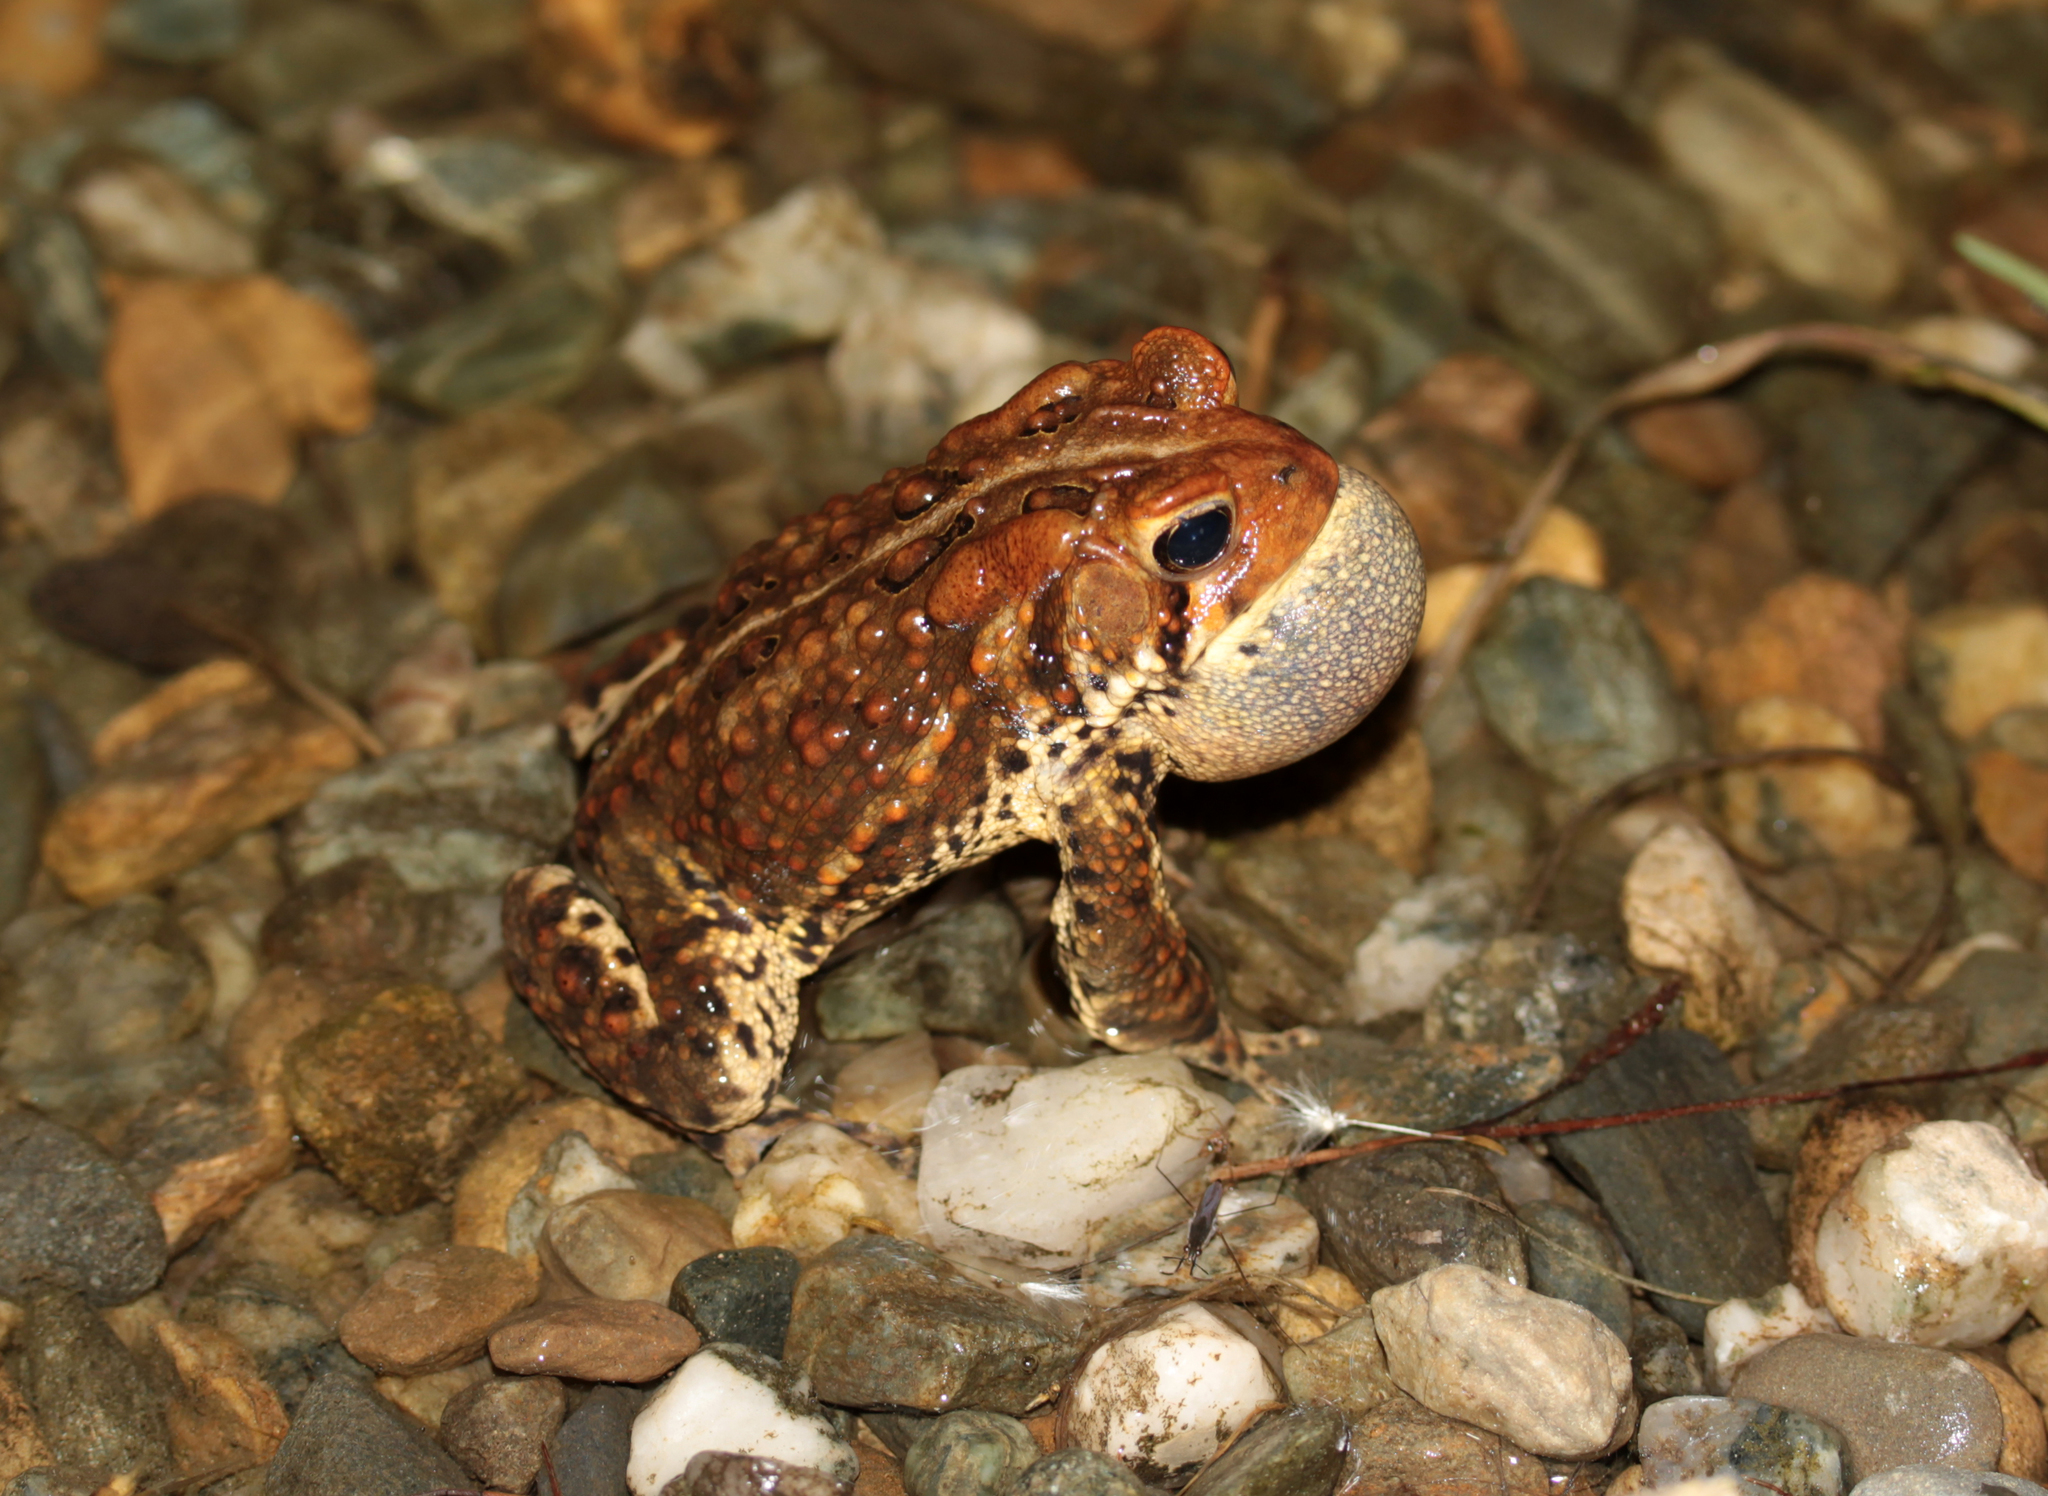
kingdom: Animalia
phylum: Chordata
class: Amphibia
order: Anura
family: Bufonidae
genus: Anaxyrus
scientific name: Anaxyrus americanus
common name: American toad
